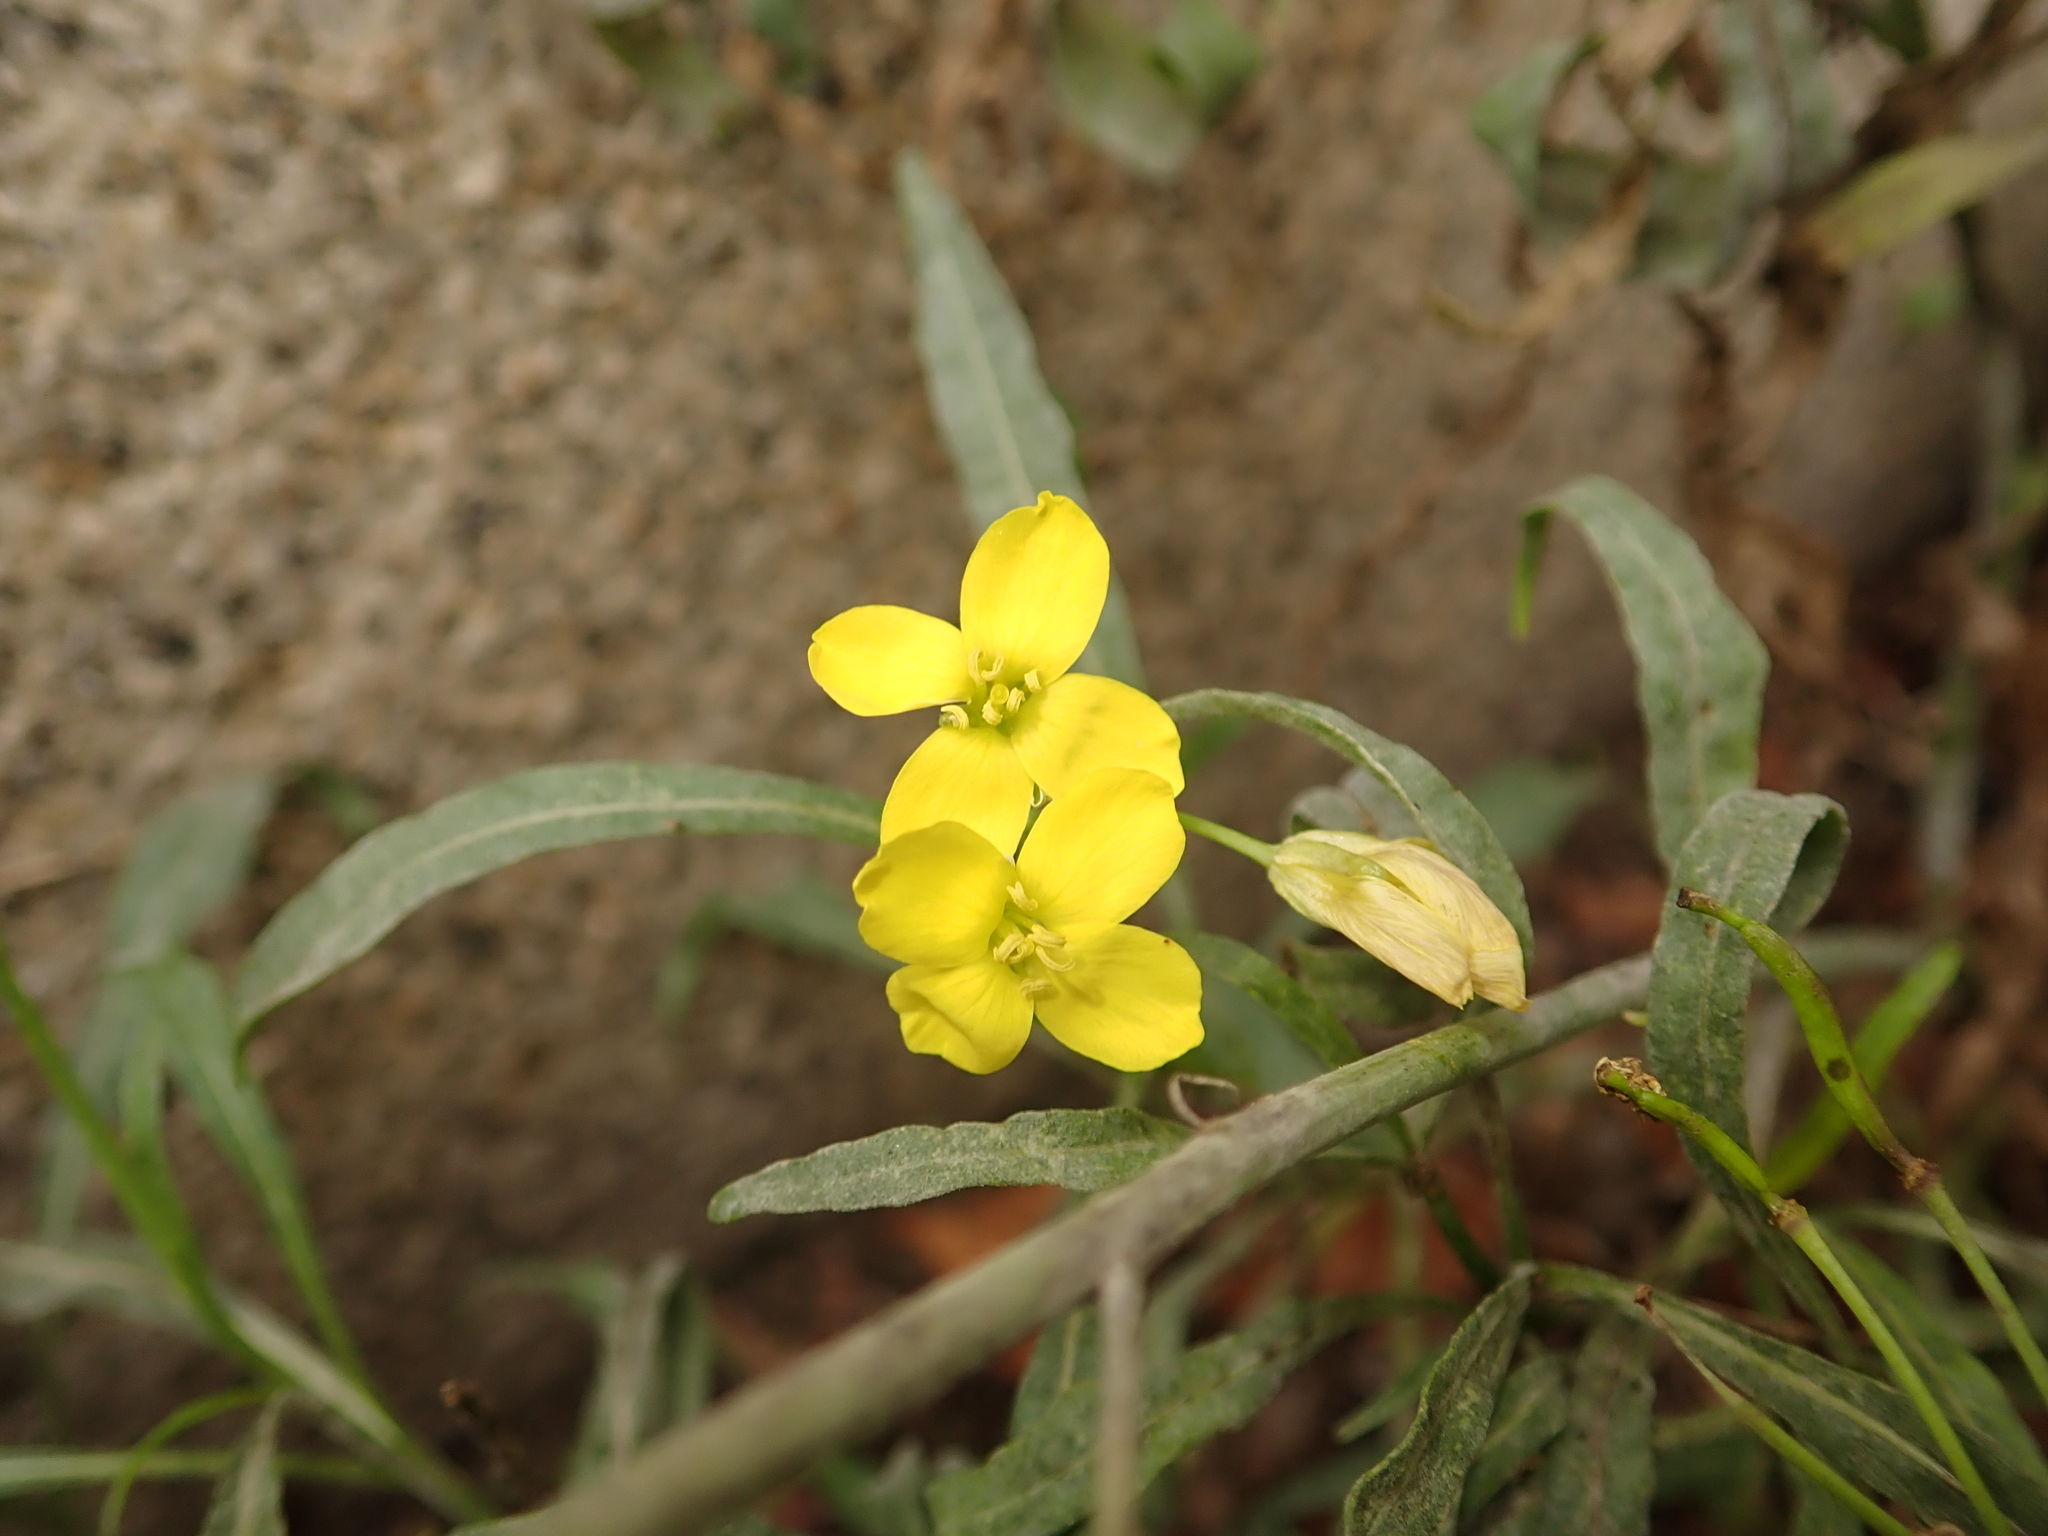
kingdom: Plantae
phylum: Tracheophyta
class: Magnoliopsida
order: Brassicales
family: Brassicaceae
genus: Diplotaxis
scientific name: Diplotaxis tenuifolia
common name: Perennial wall-rocket
